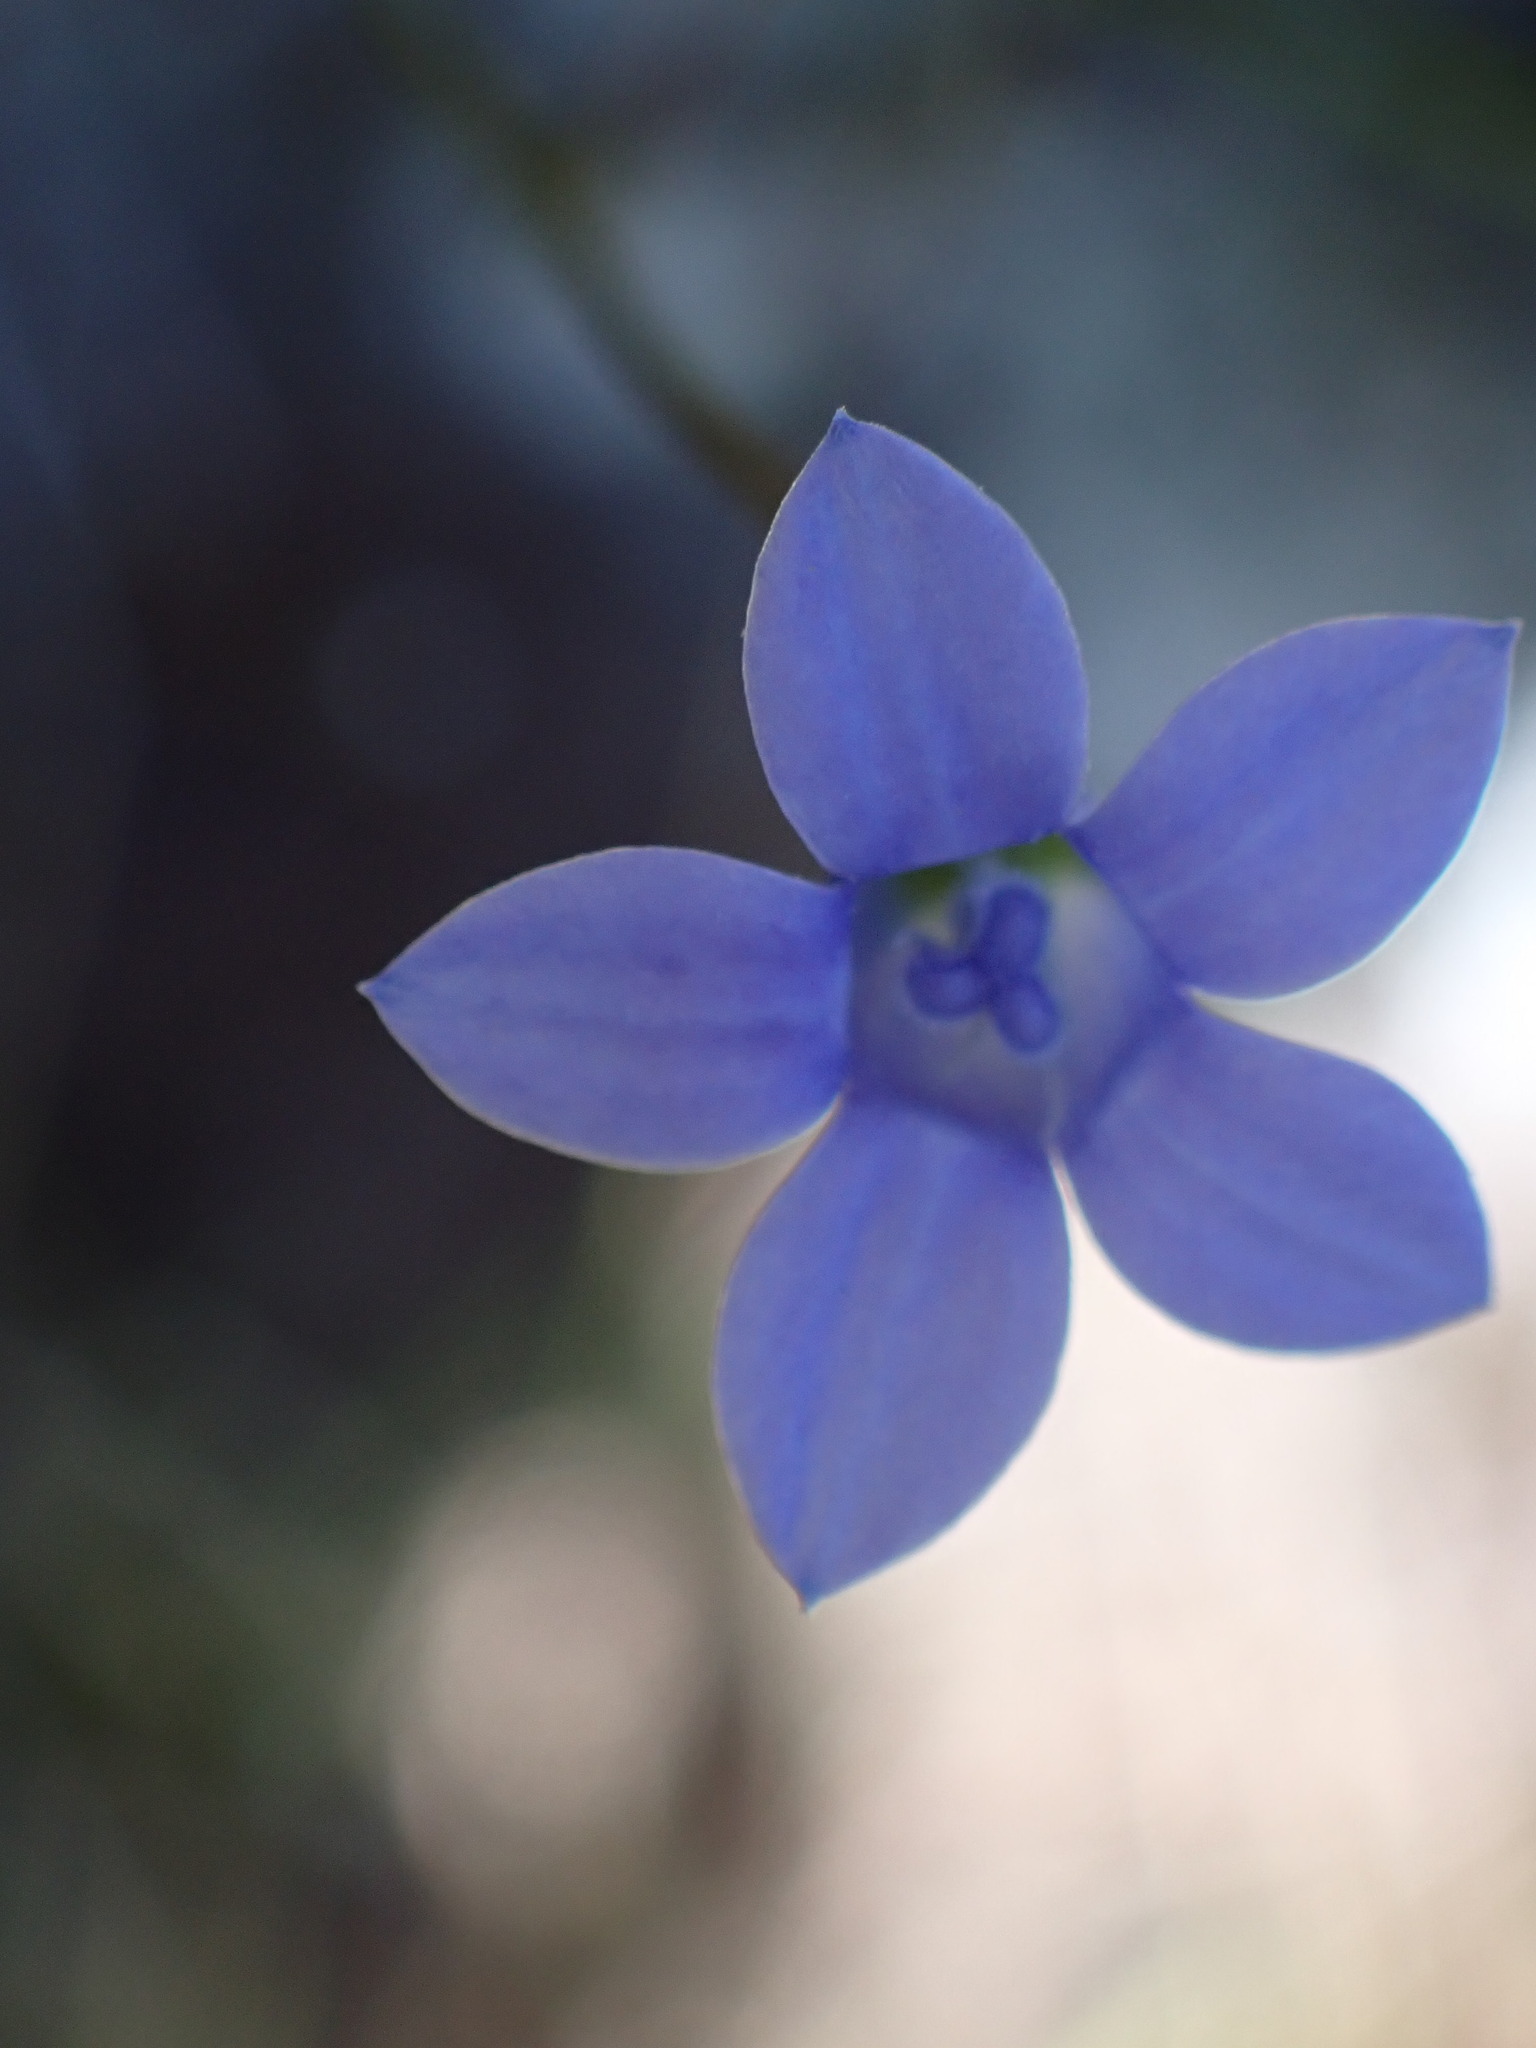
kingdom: Plantae
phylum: Tracheophyta
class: Magnoliopsida
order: Asterales
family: Campanulaceae
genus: Wahlenbergia
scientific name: Wahlenbergia gracilis
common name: Harebell
